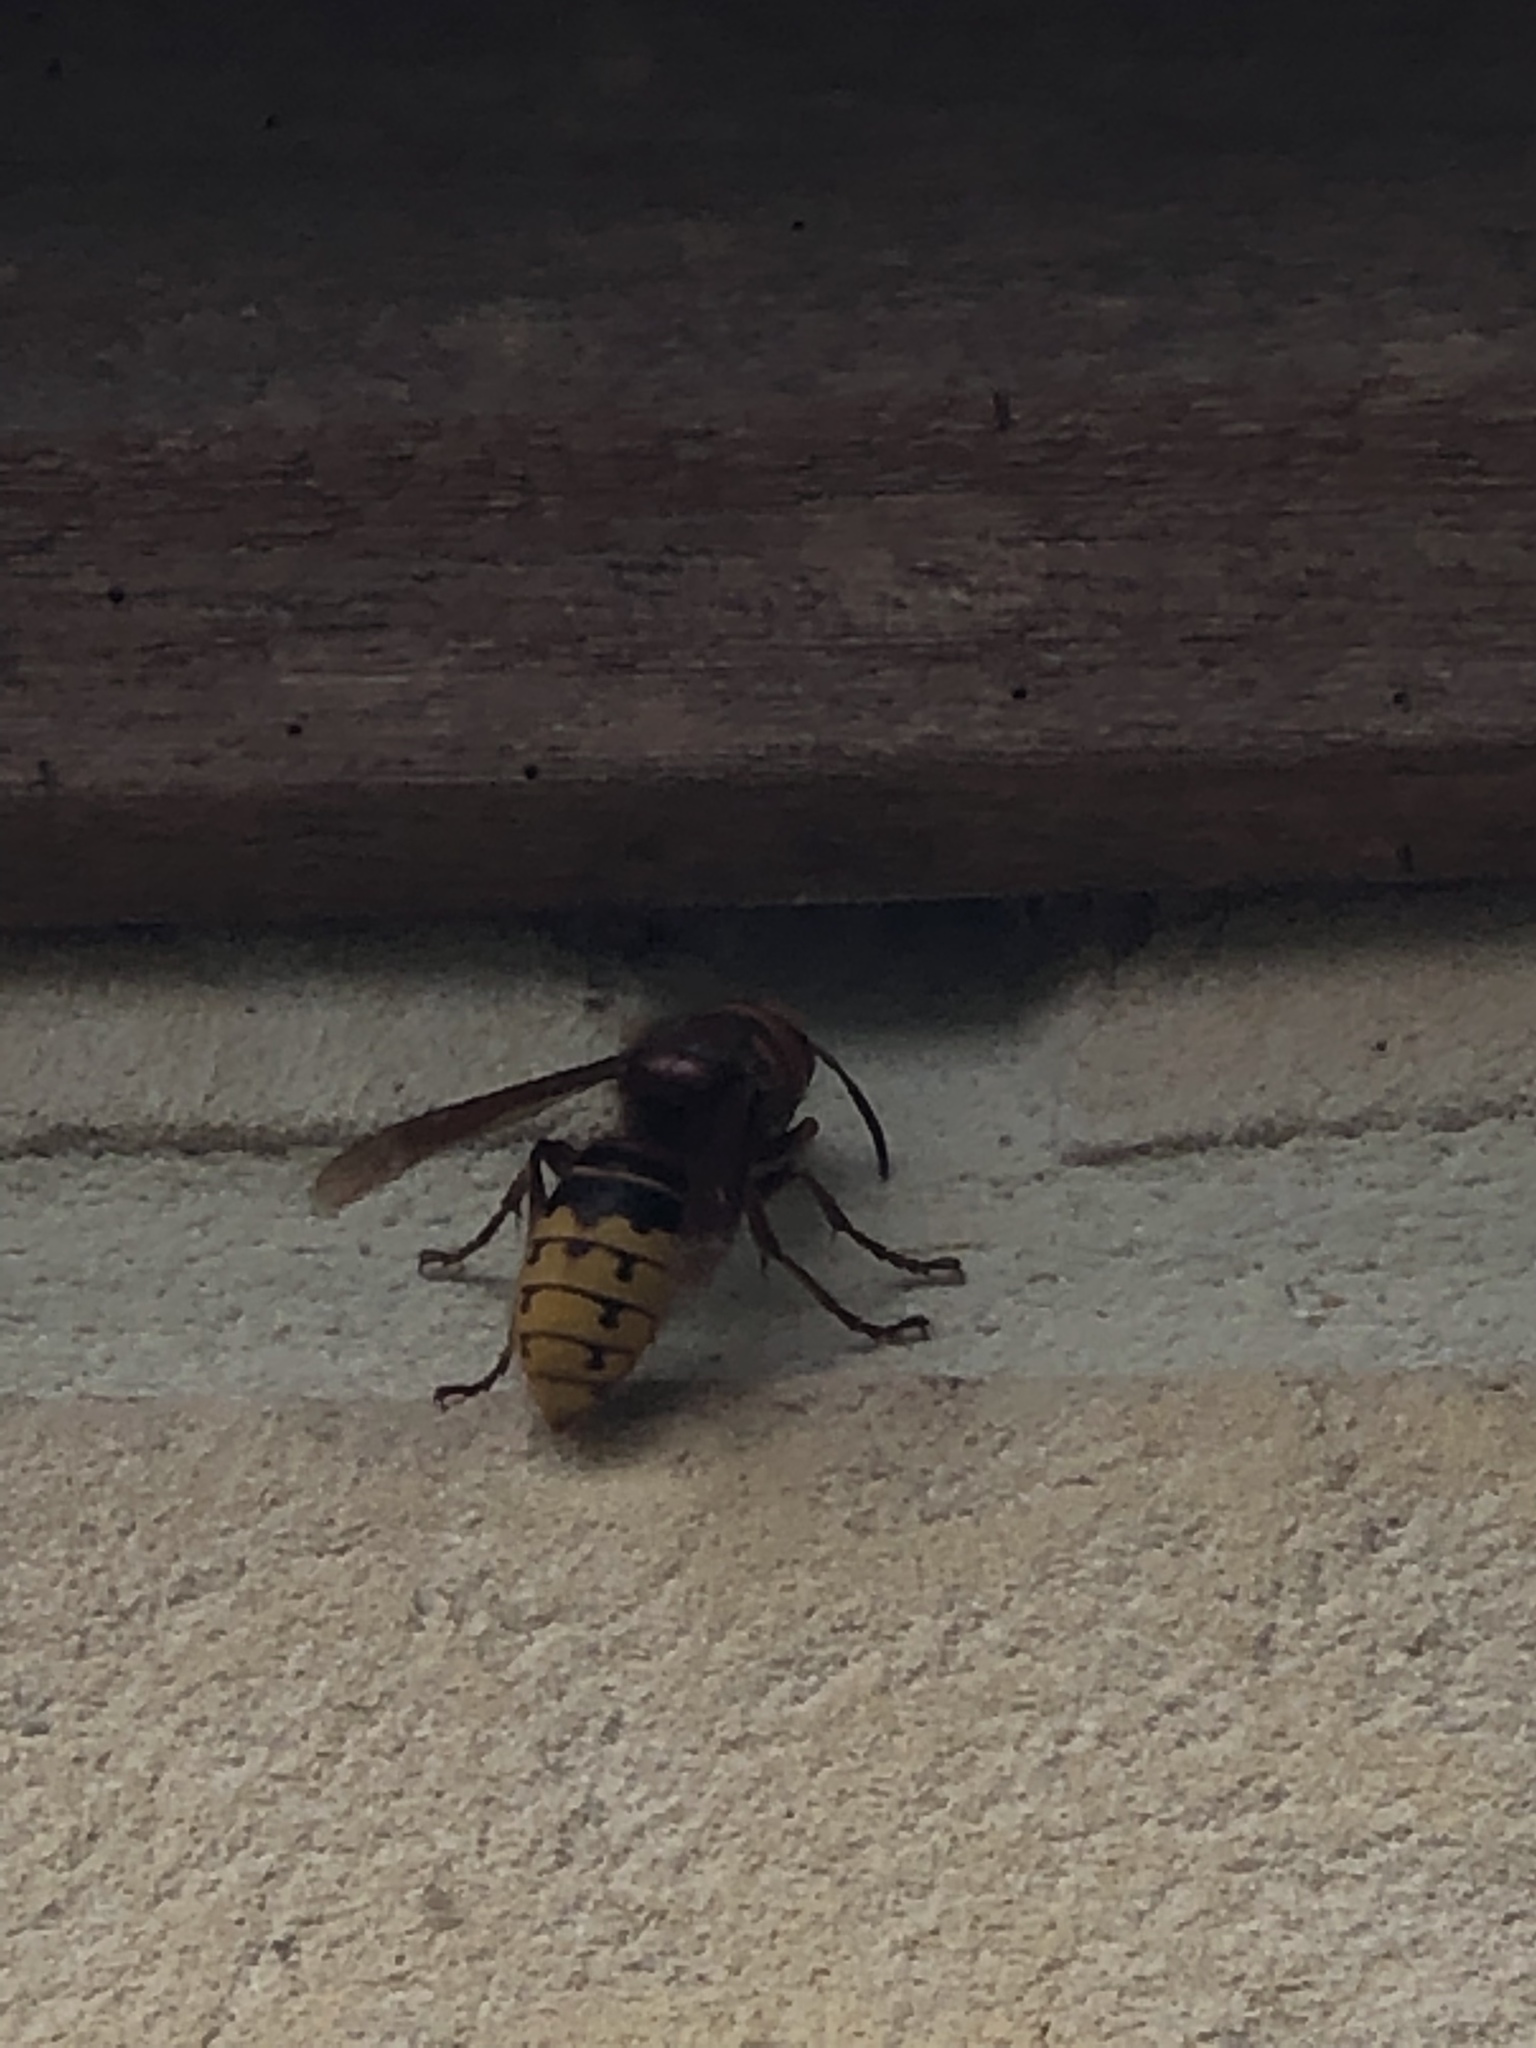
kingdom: Animalia
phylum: Arthropoda
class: Insecta
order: Hymenoptera
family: Vespidae
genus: Vespa
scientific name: Vespa crabro
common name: Hornet
